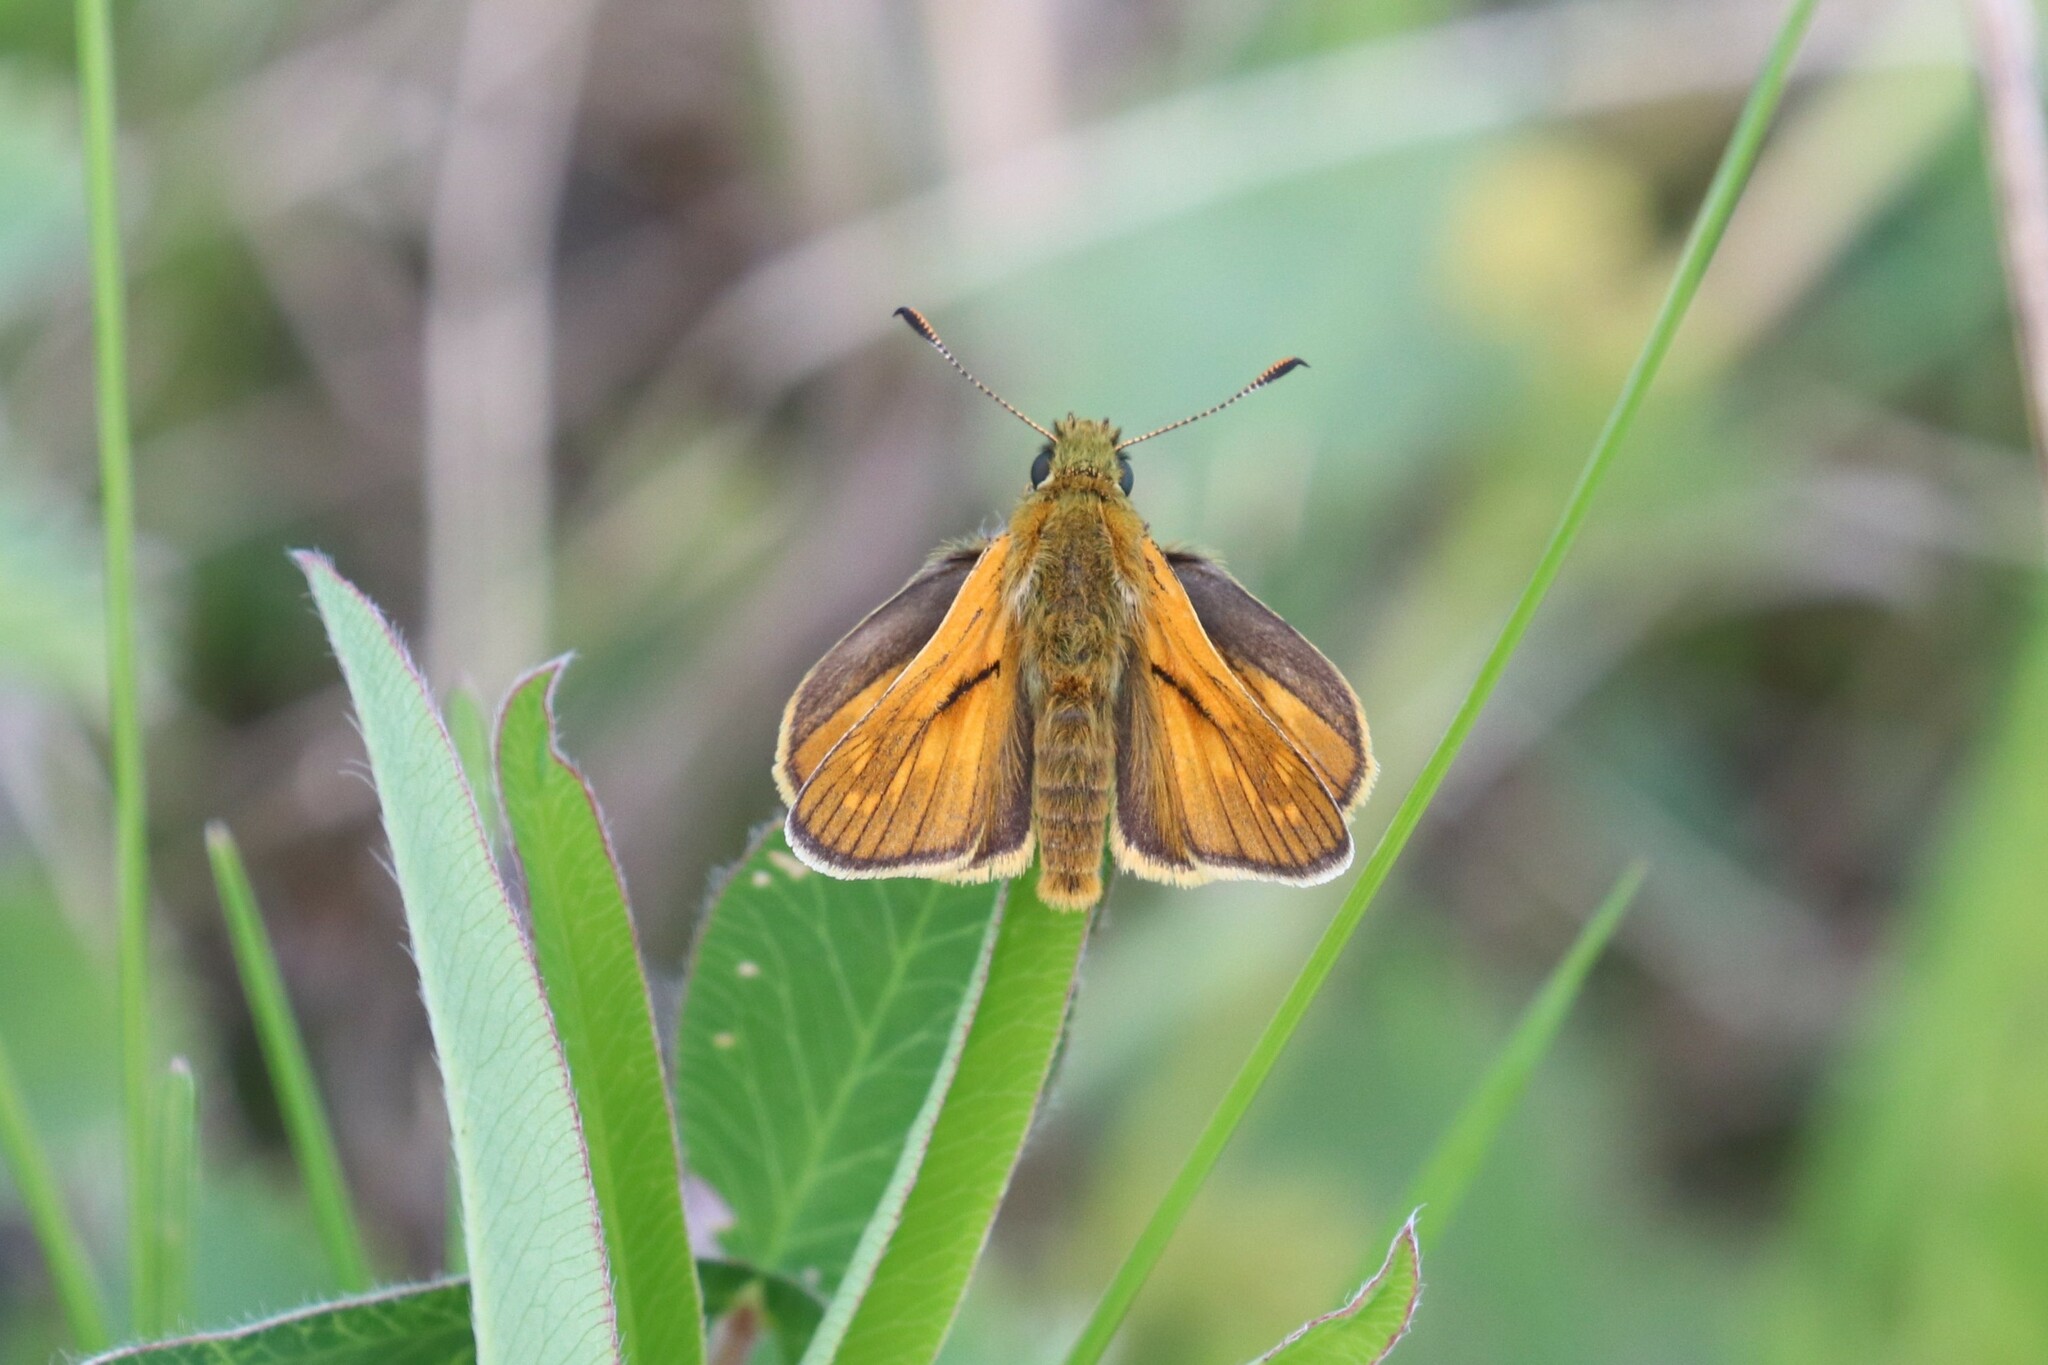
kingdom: Animalia
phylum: Arthropoda
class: Insecta
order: Lepidoptera
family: Hesperiidae
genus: Ochlodes
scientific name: Ochlodes venata
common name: Large skipper
